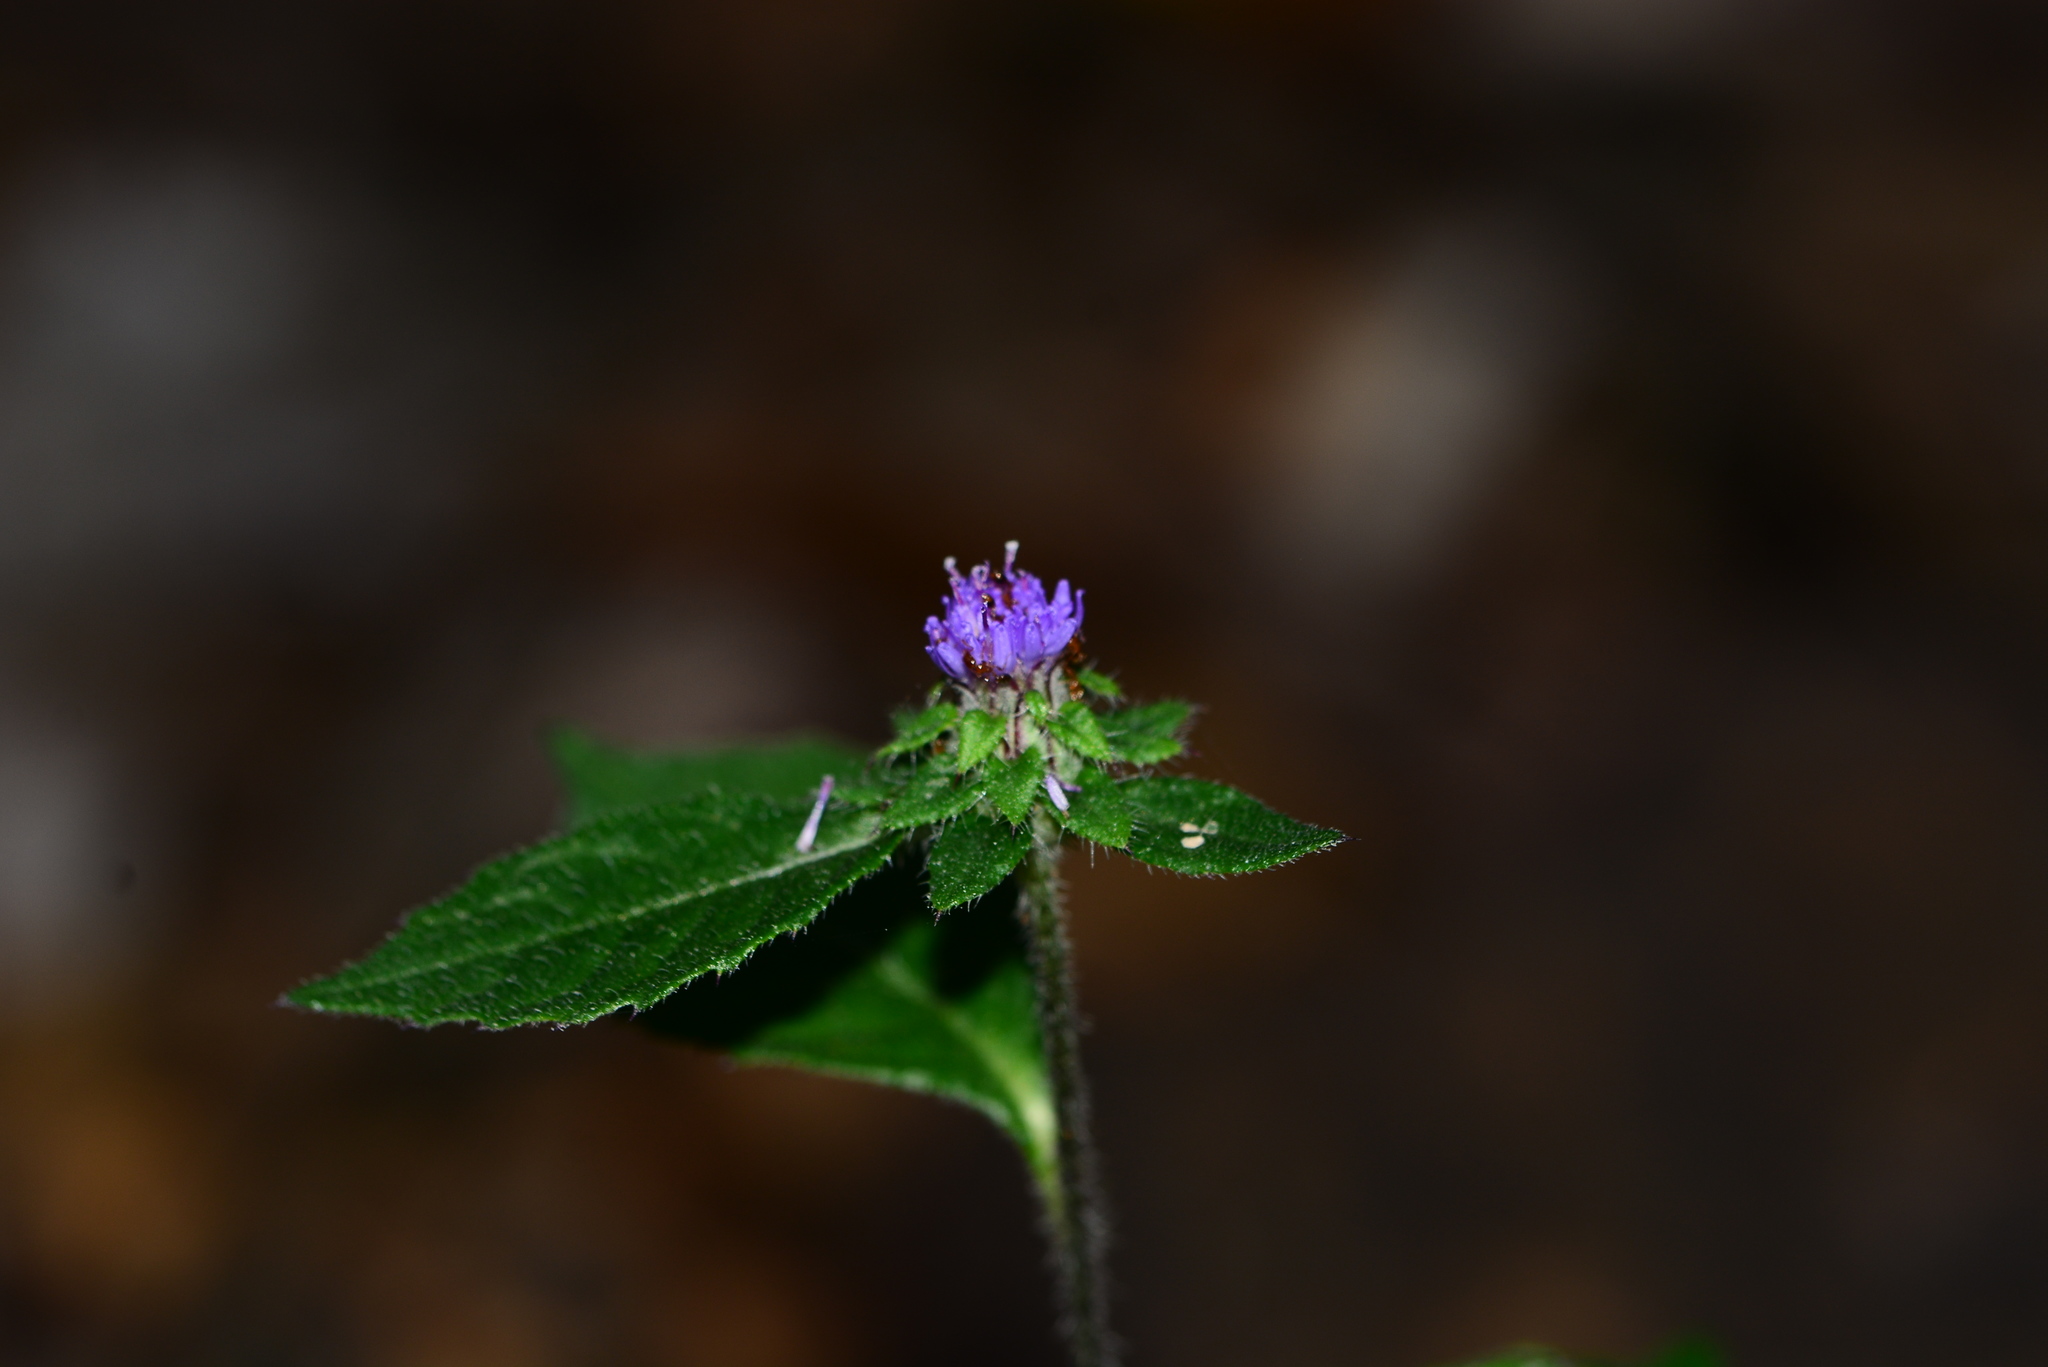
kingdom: Plantae
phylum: Tracheophyta
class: Magnoliopsida
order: Asterales
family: Asteraceae
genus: Phyllocephalum
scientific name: Phyllocephalum scabridum
